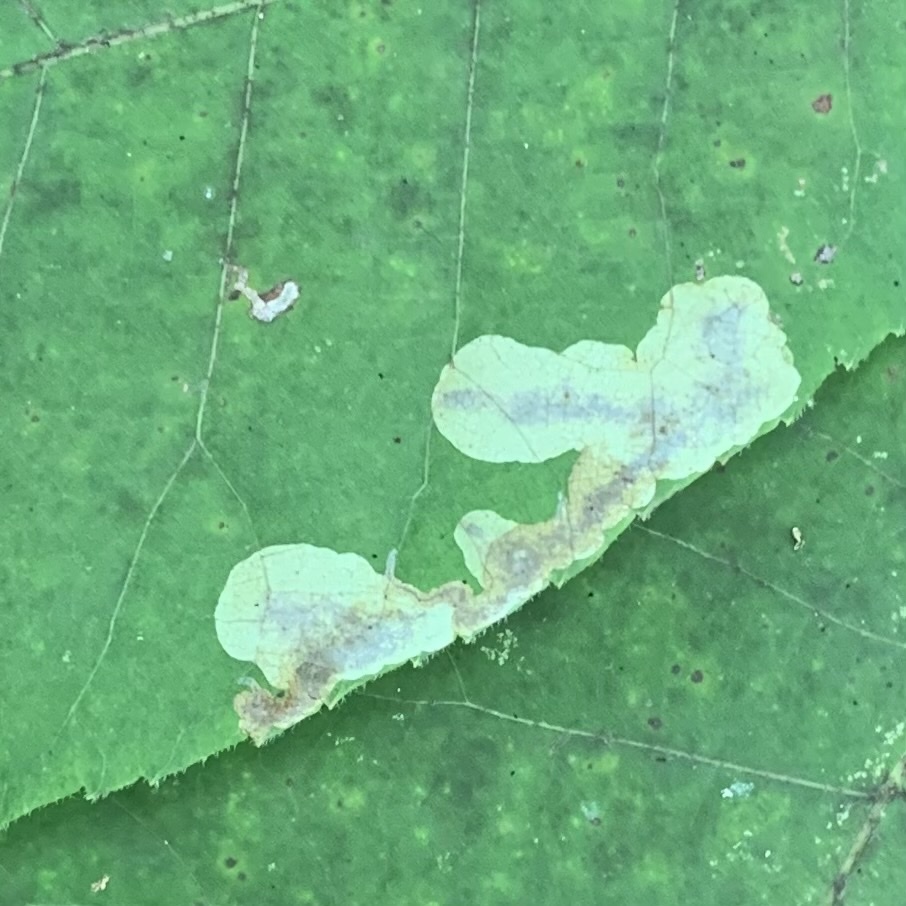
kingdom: Animalia
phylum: Arthropoda
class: Insecta
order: Lepidoptera
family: Gracillariidae
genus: Cameraria
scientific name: Cameraria caryaefoliella
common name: Pecan leafminer moth
